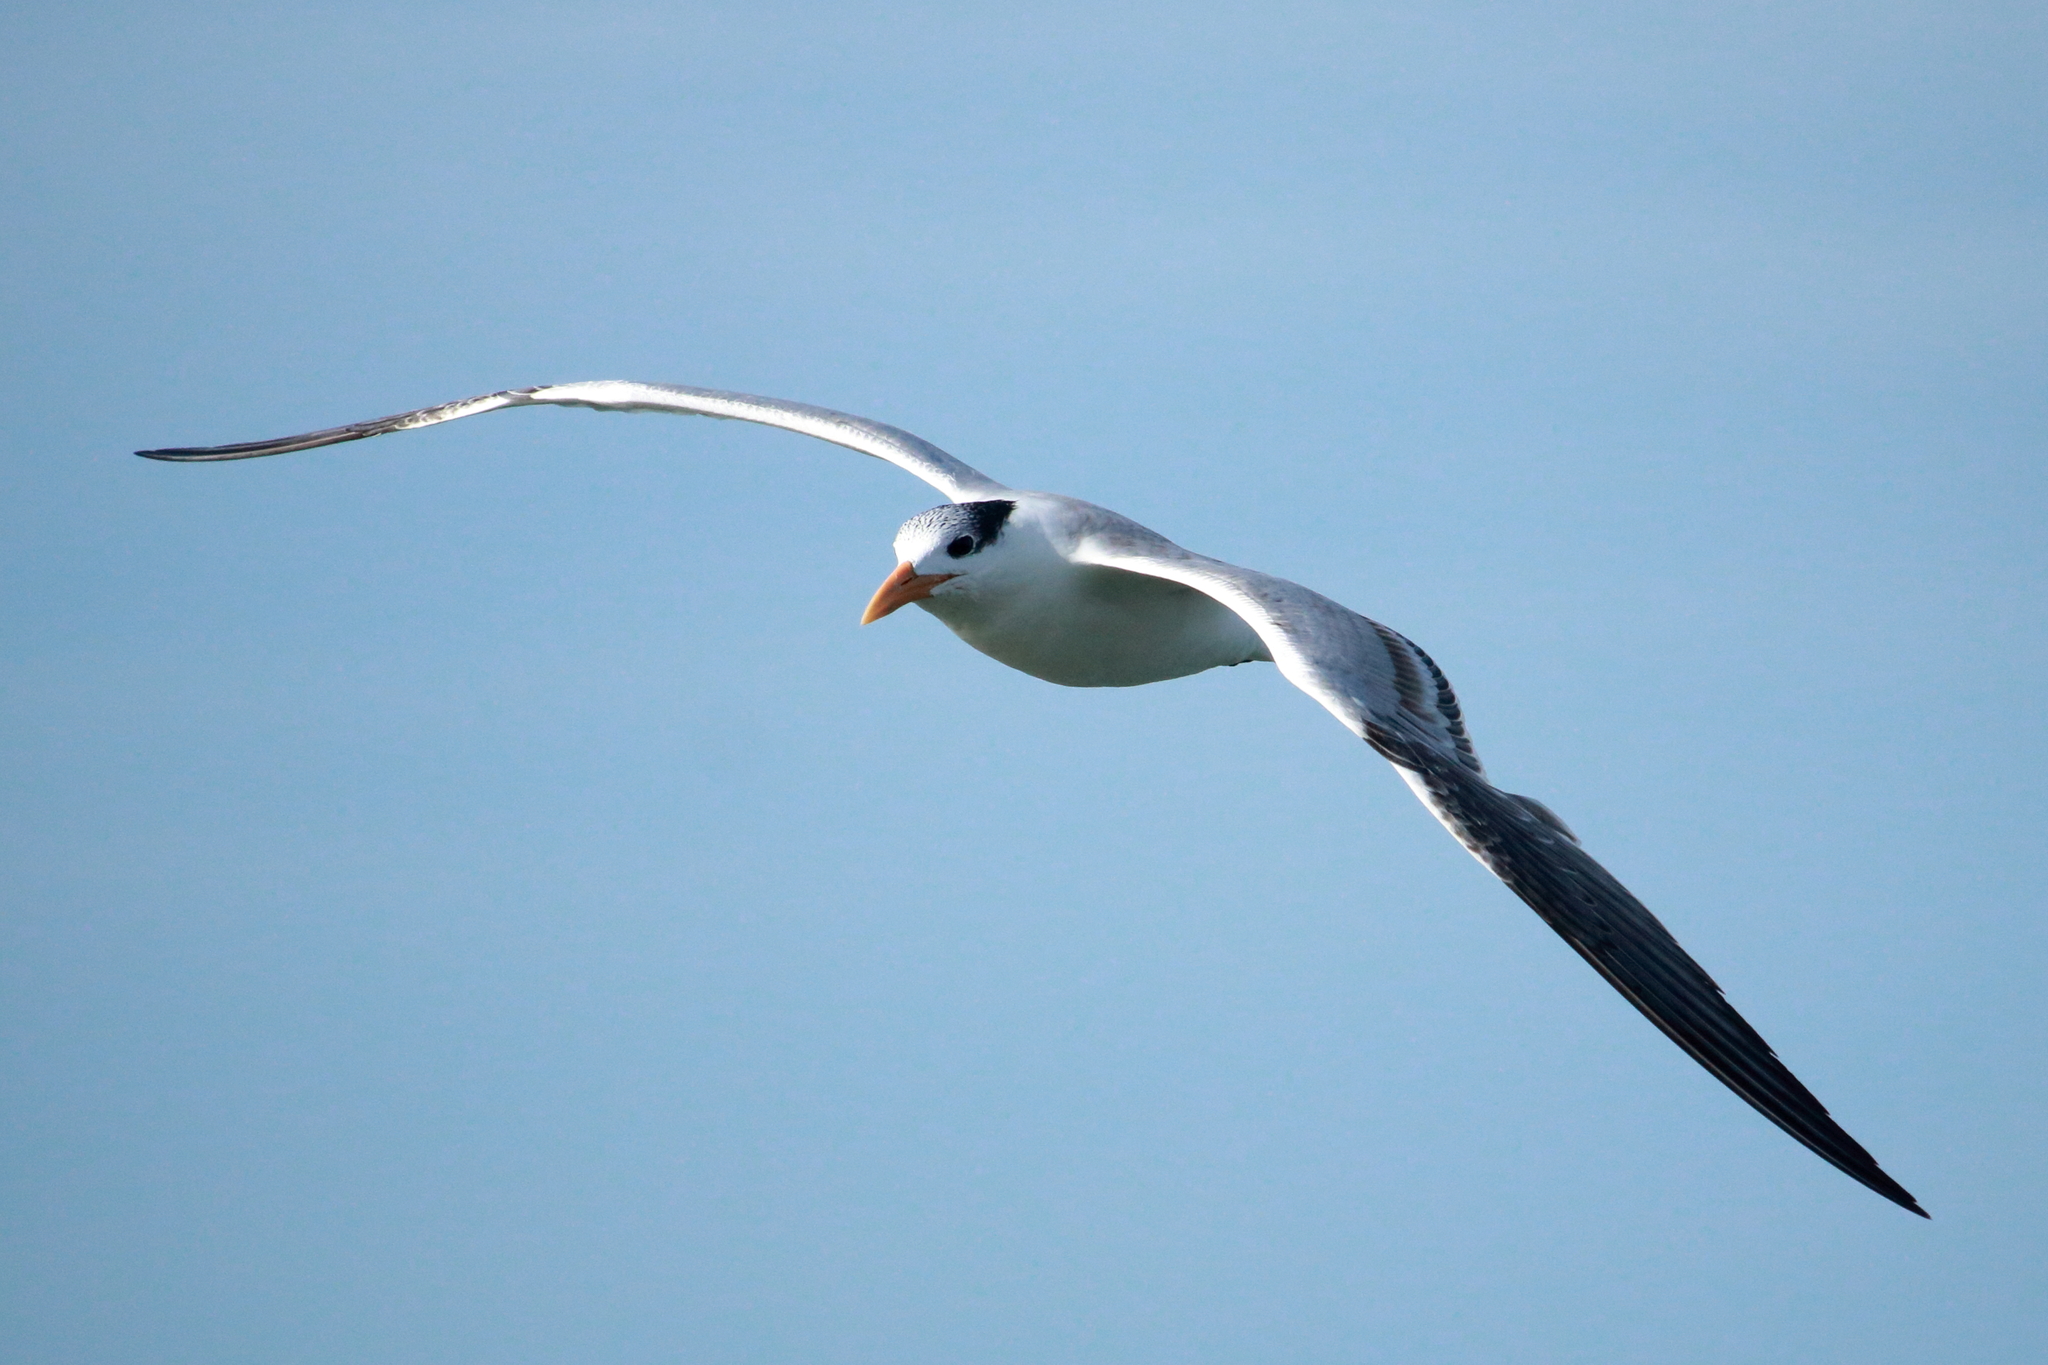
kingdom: Animalia
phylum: Chordata
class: Aves
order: Charadriiformes
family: Laridae
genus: Thalasseus
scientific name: Thalasseus maximus
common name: Royal tern
